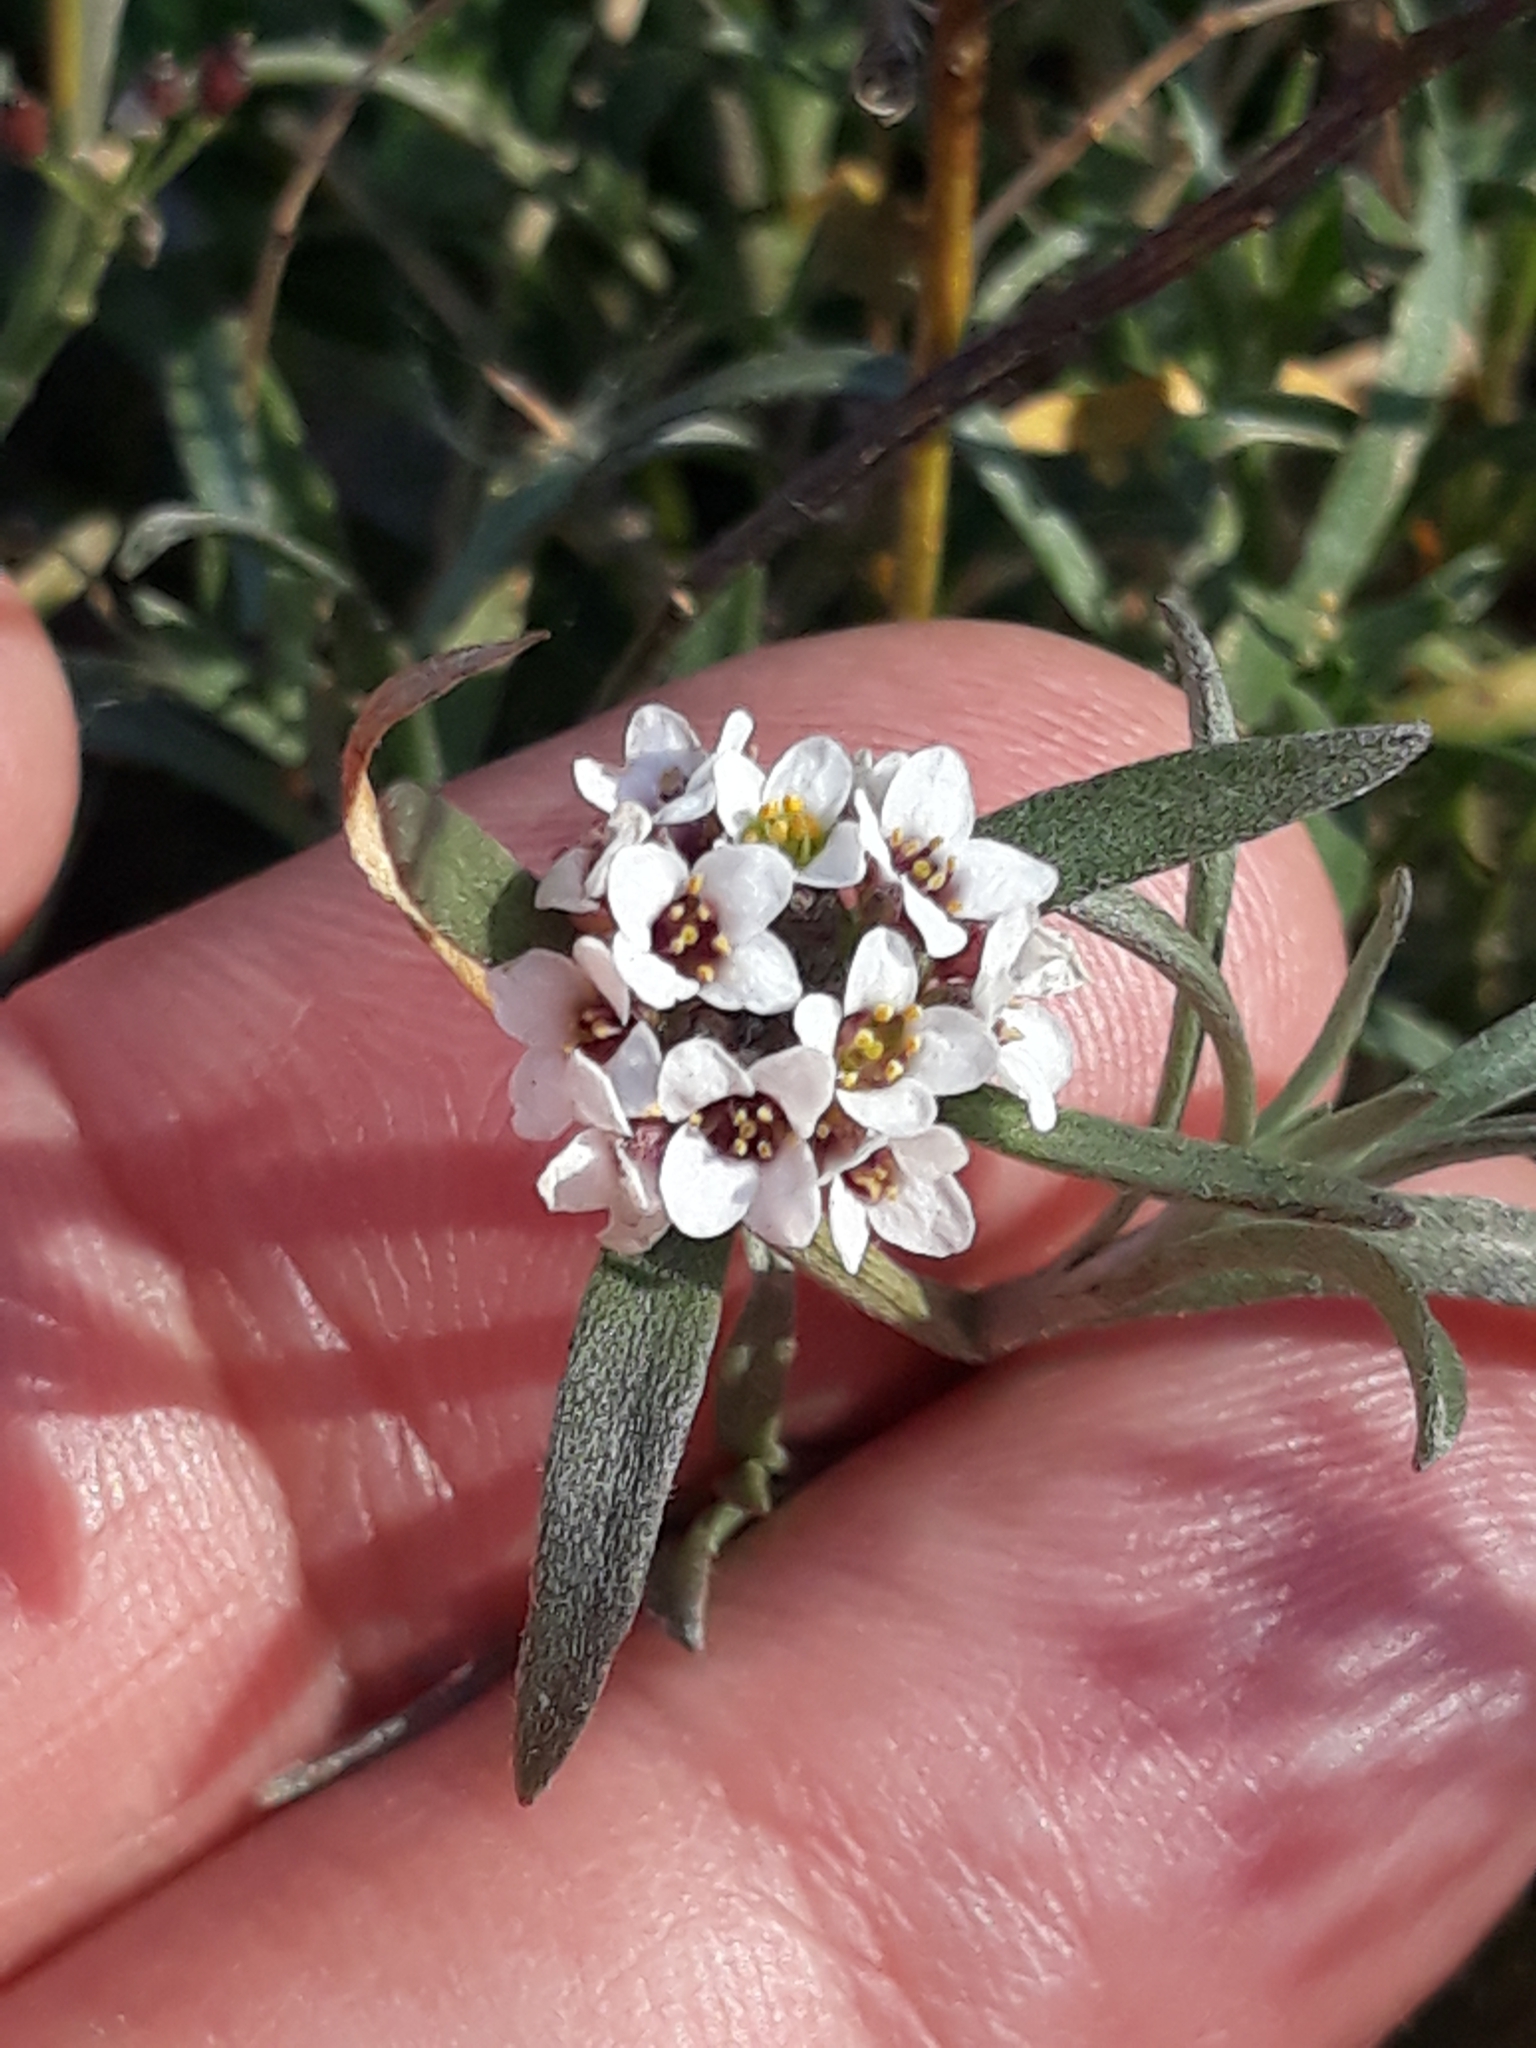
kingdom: Plantae
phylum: Tracheophyta
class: Magnoliopsida
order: Brassicales
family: Brassicaceae
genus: Lobularia
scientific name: Lobularia maritima
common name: Sweet alison
